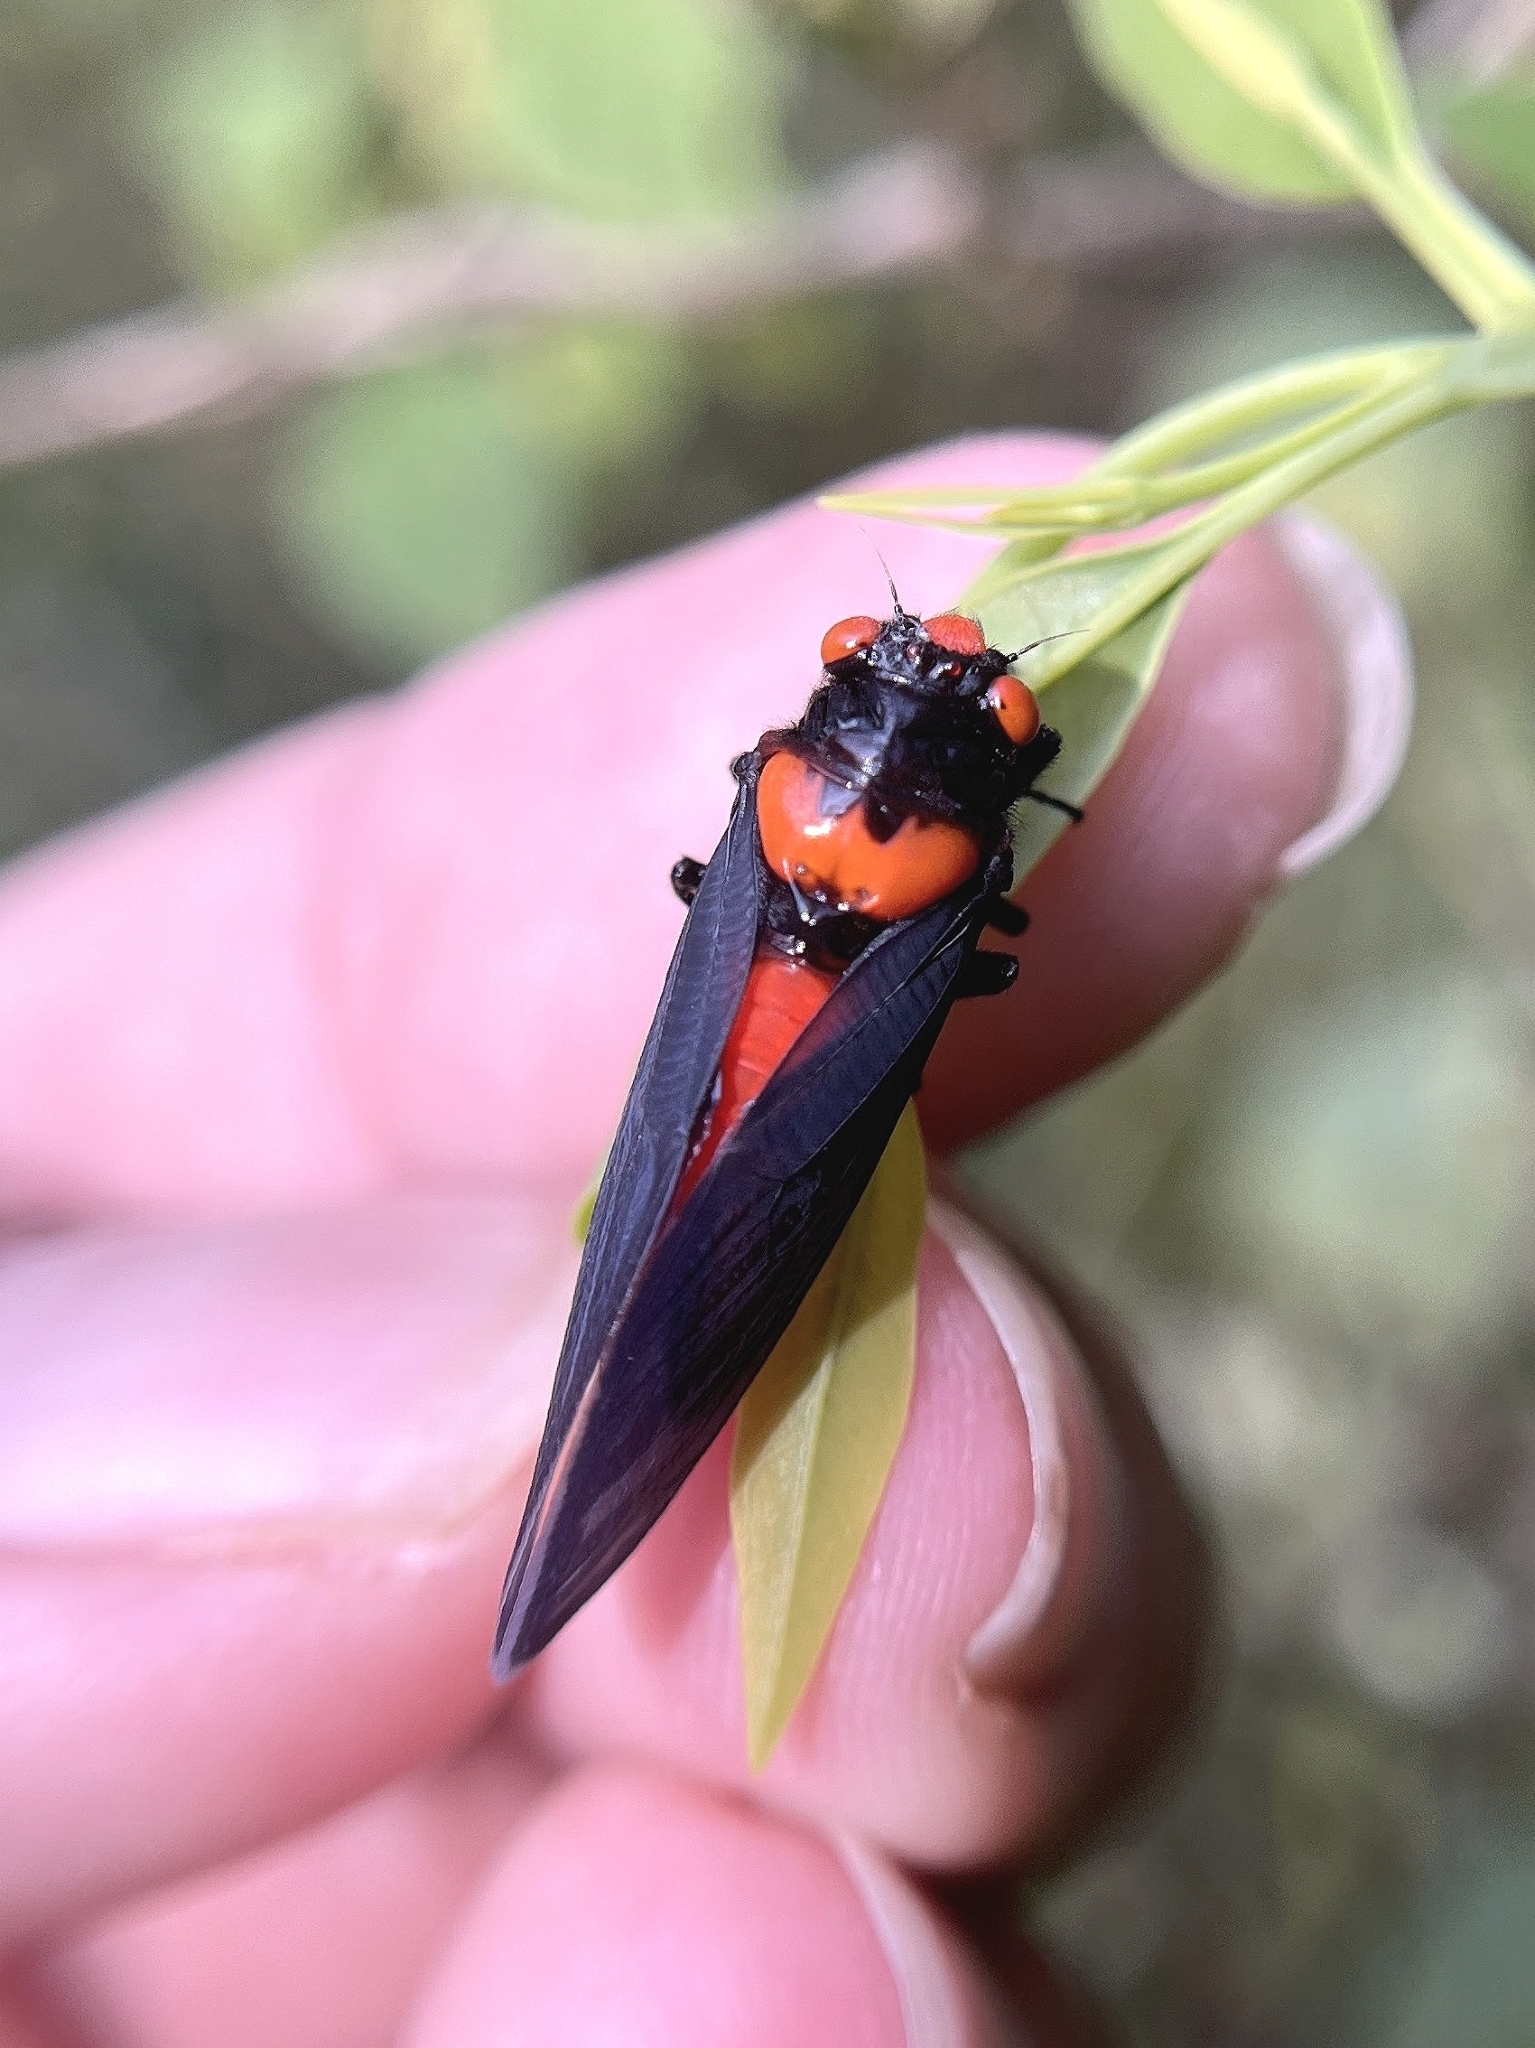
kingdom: Animalia
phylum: Arthropoda
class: Insecta
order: Hemiptera
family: Cicadidae
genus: Huechys
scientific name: Huechys beata
